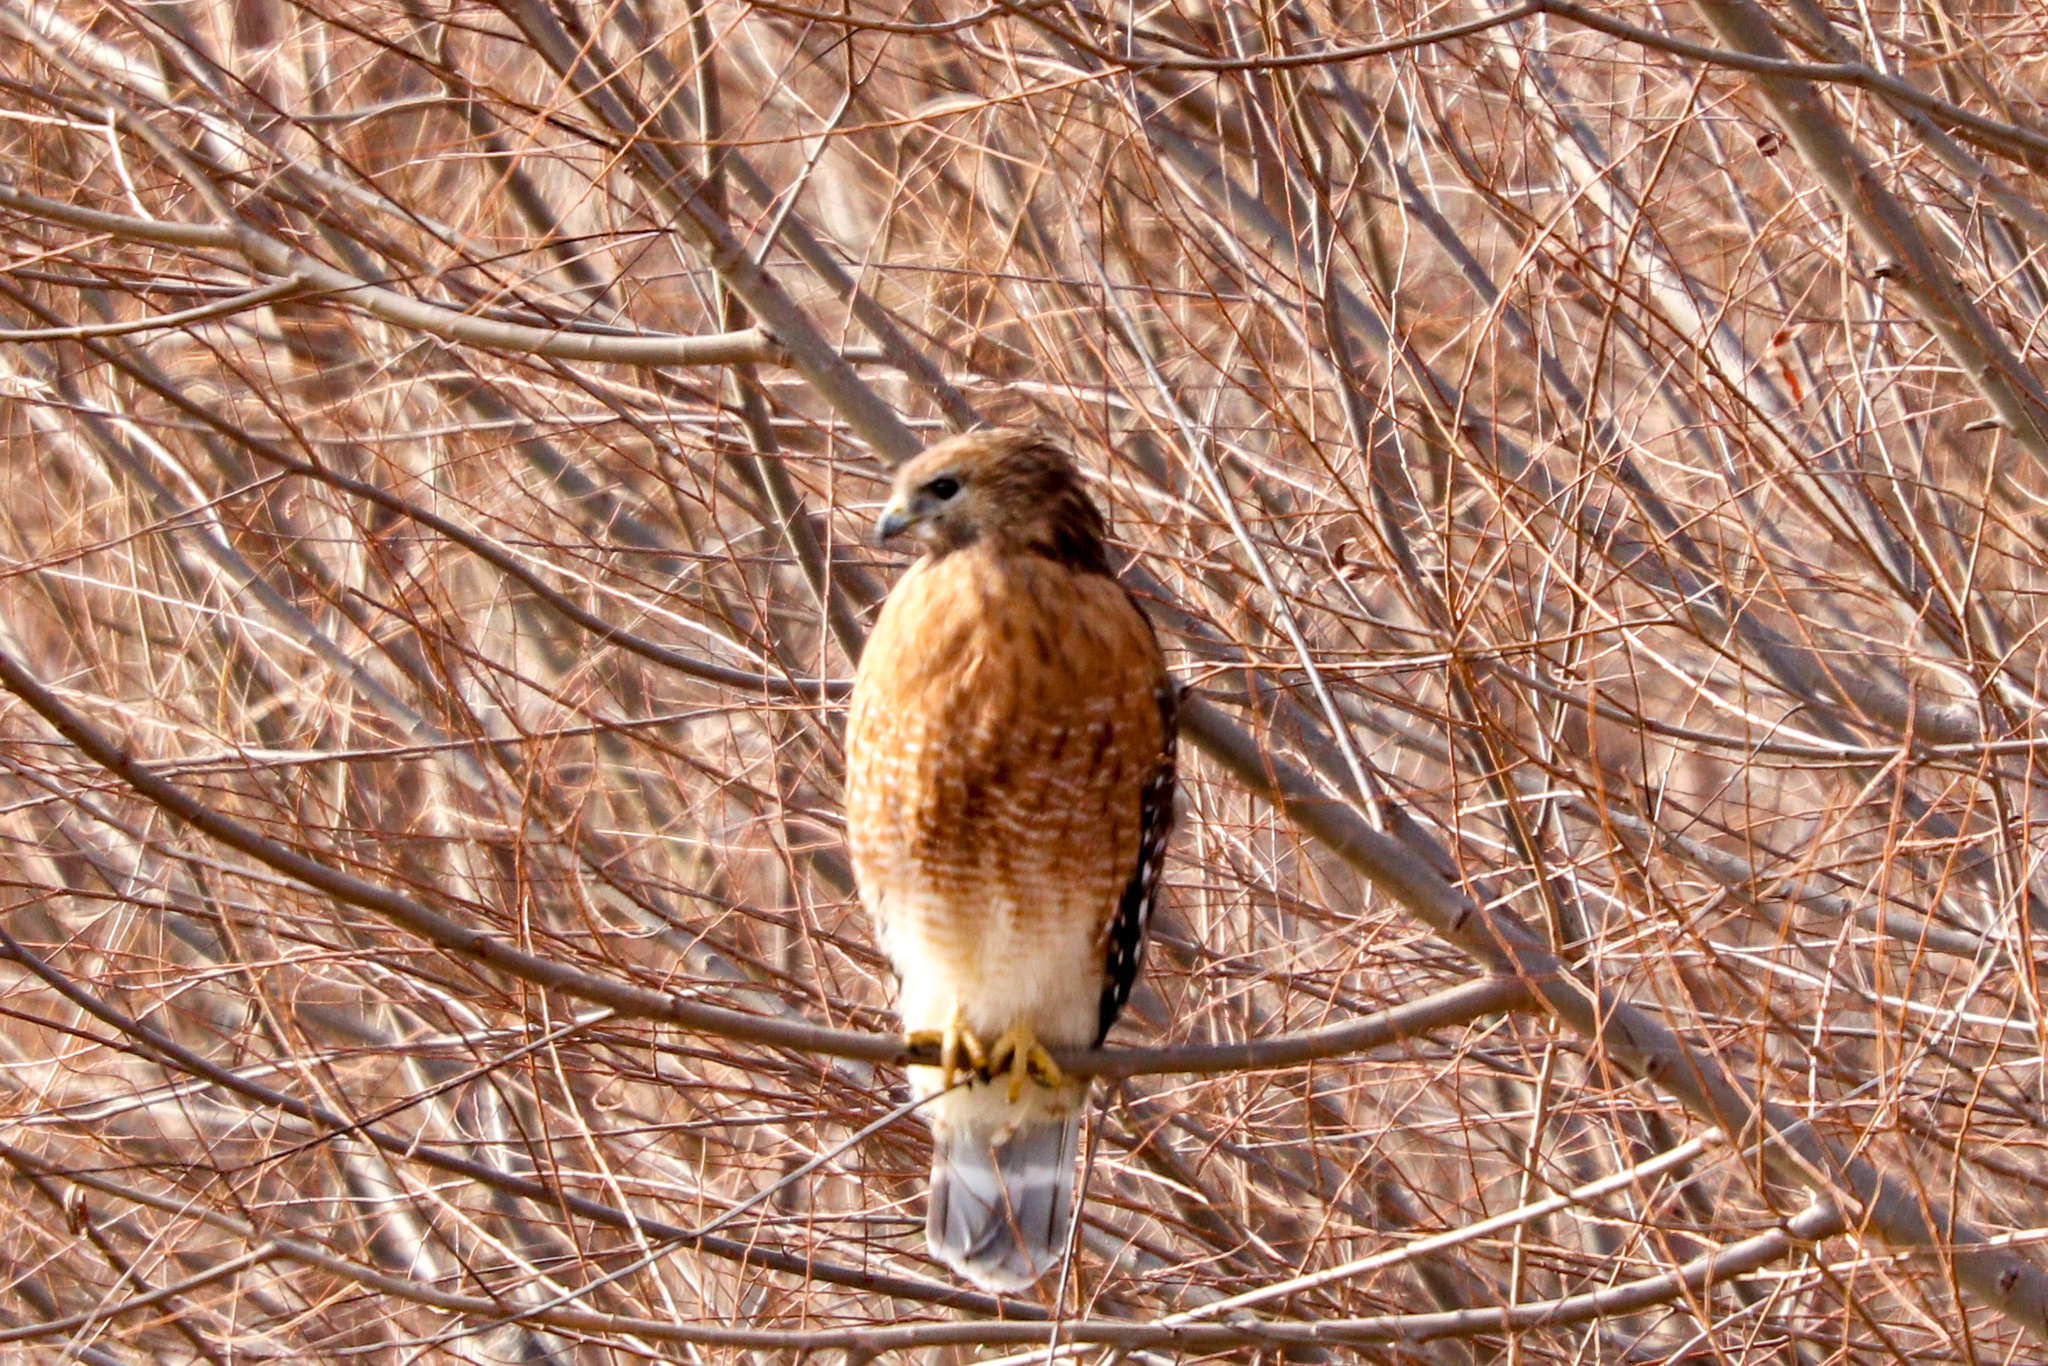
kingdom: Animalia
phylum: Chordata
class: Aves
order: Accipitriformes
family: Accipitridae
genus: Buteo
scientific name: Buteo lineatus
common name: Red-shouldered hawk
